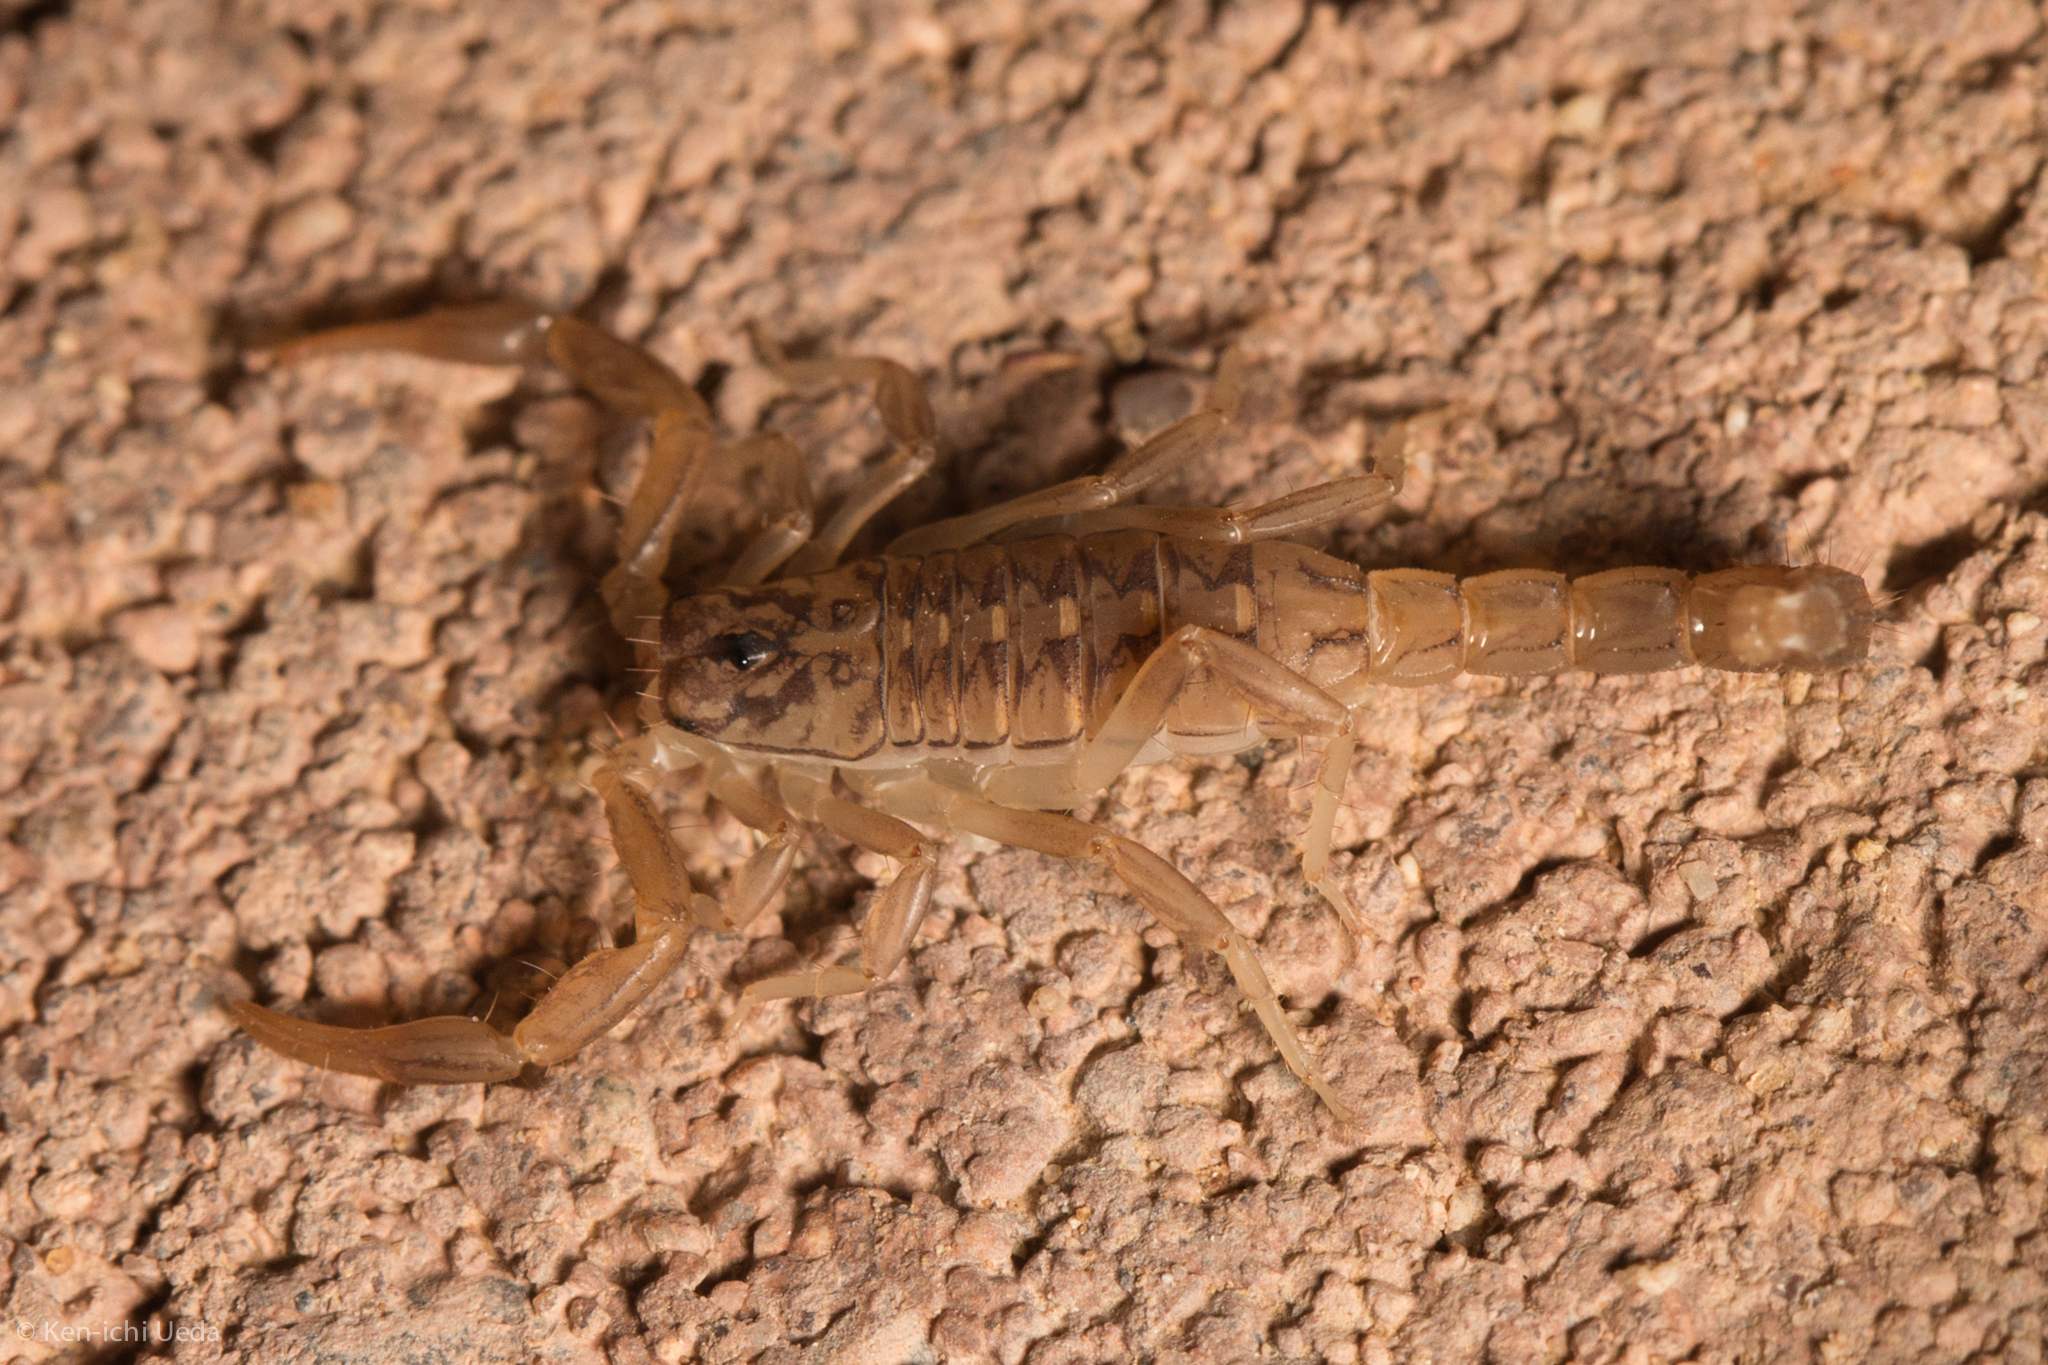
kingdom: Animalia
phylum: Arthropoda
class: Arachnida
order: Scorpiones
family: Vaejovidae
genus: Paravaejovis
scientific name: Paravaejovis spinigerus
